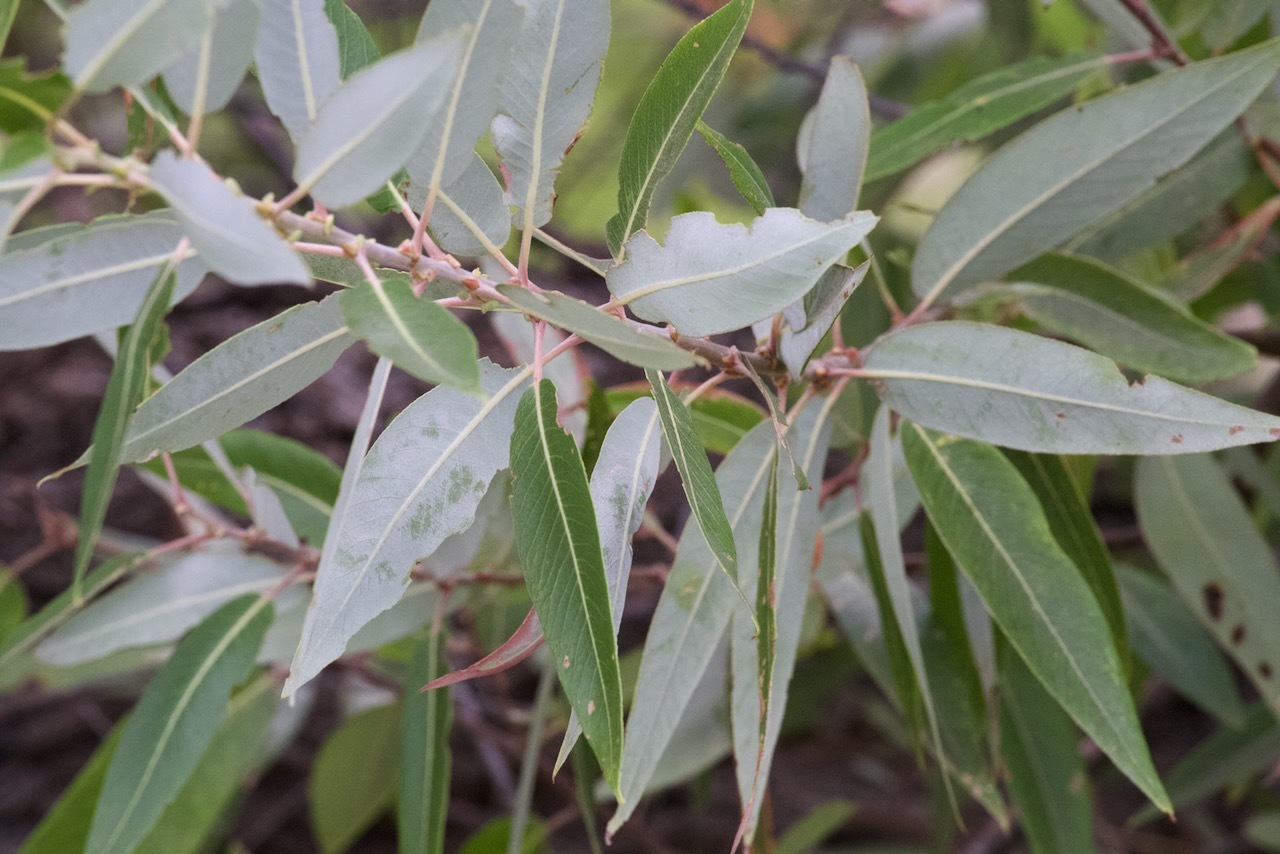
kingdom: Plantae
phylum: Tracheophyta
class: Magnoliopsida
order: Malpighiales
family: Salicaceae
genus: Salix
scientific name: Salix laevigata
